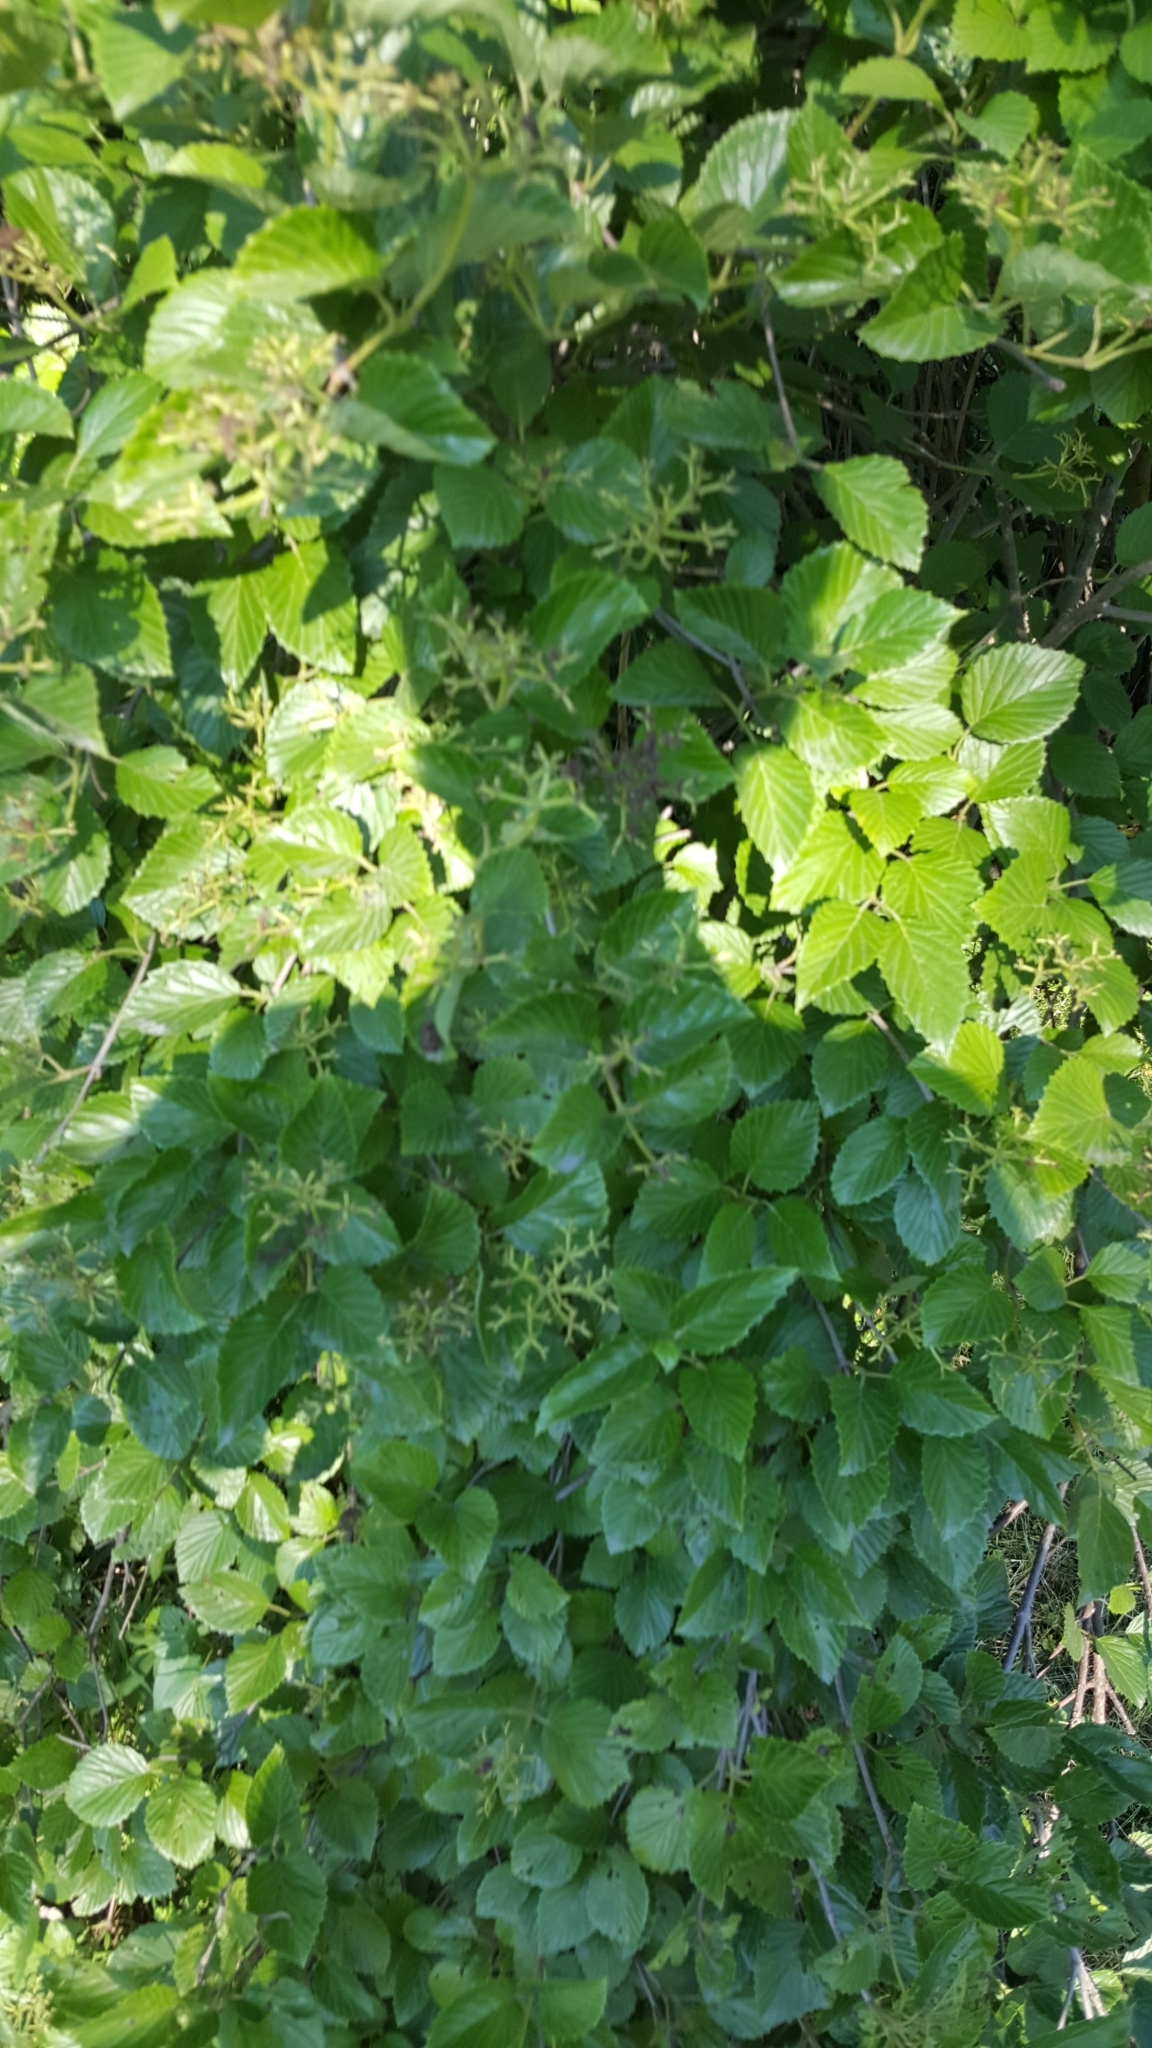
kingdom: Plantae
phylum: Tracheophyta
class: Magnoliopsida
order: Dipsacales
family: Viburnaceae
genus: Viburnum
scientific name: Viburnum dentatum
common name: Arrow-wood
